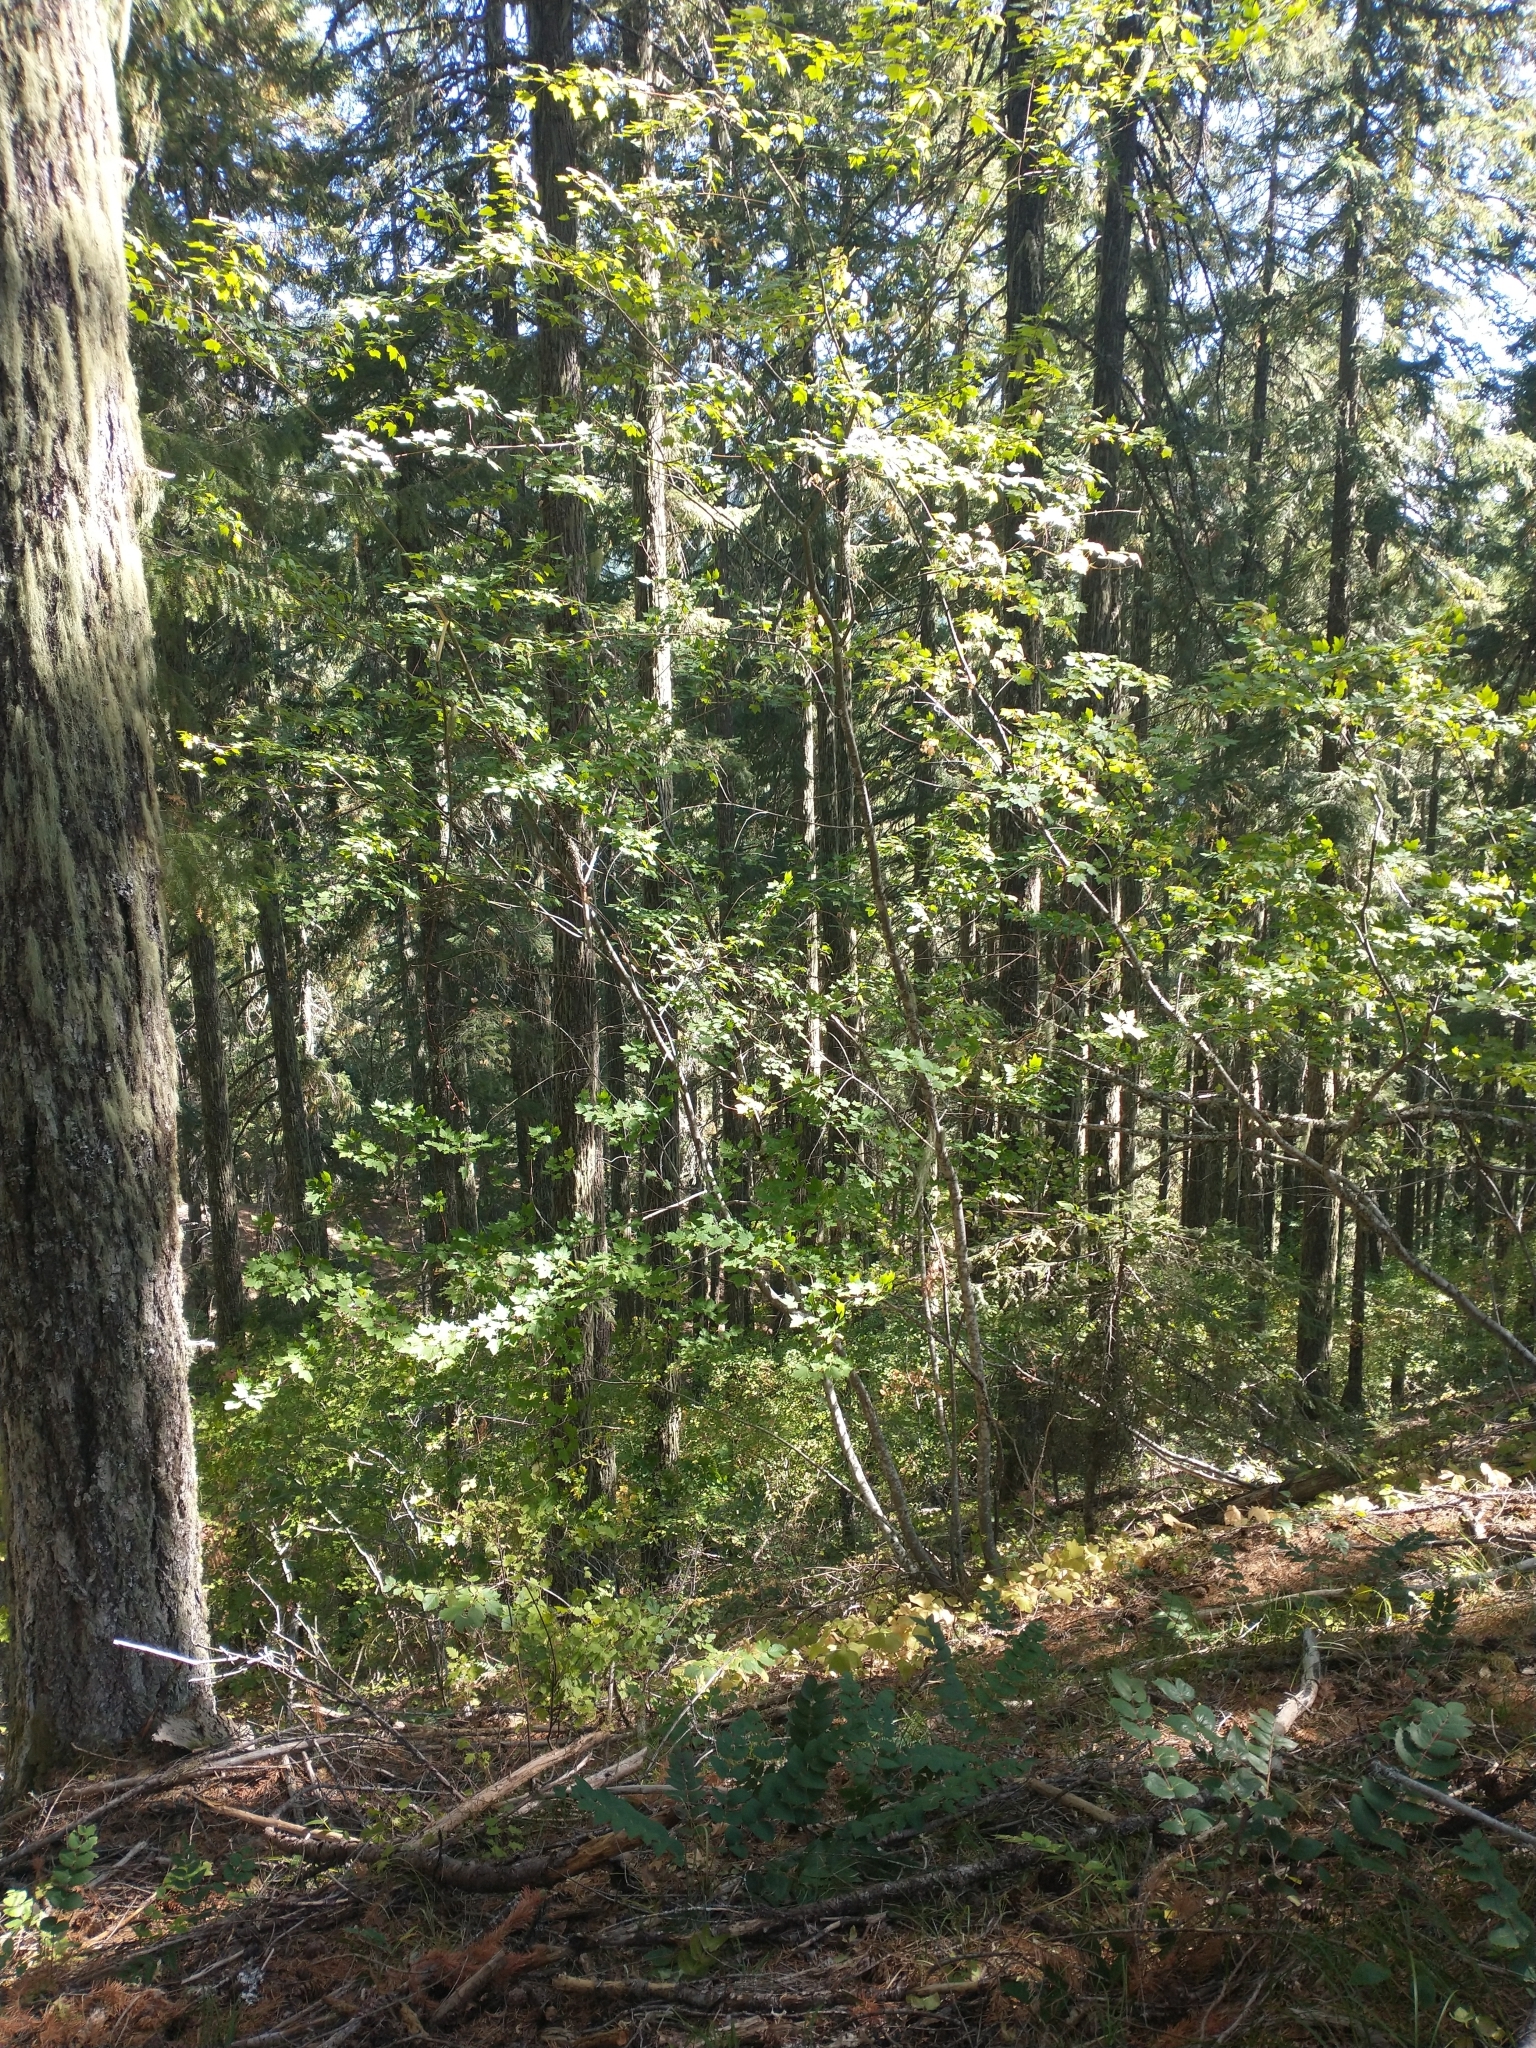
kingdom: Plantae
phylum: Tracheophyta
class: Magnoliopsida
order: Sapindales
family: Sapindaceae
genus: Acer
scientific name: Acer glabrum
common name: Rocky mountain maple
